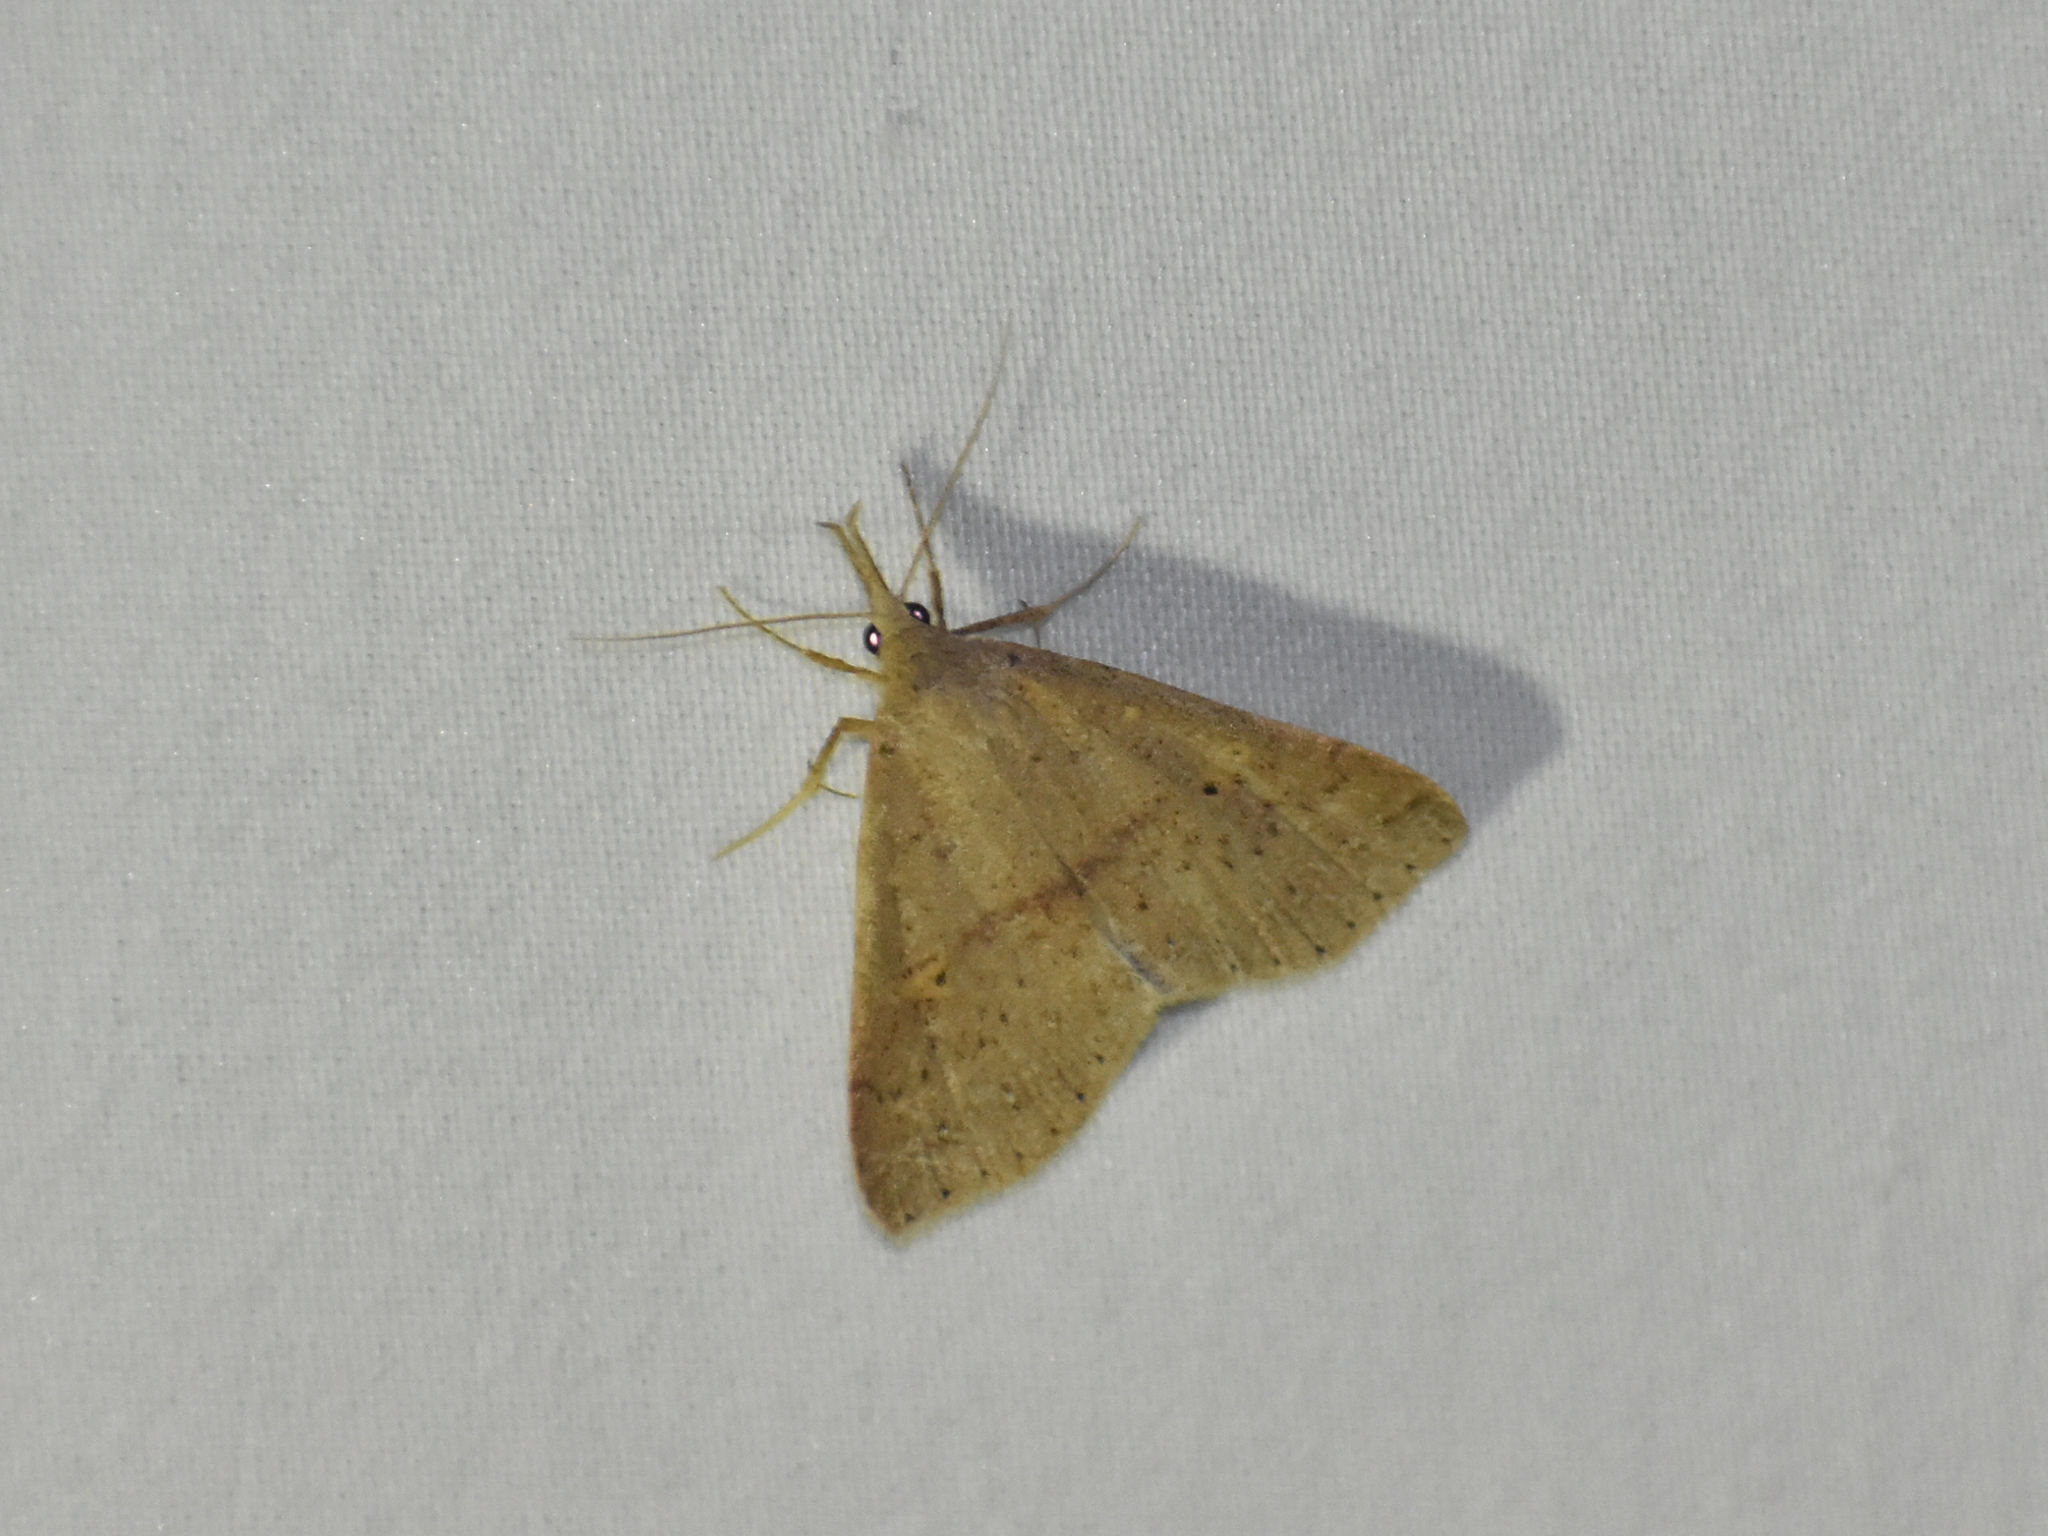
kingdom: Animalia
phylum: Arthropoda
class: Insecta
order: Lepidoptera
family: Erebidae
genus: Renia
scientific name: Renia salusalis
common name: Dotted renia moth
